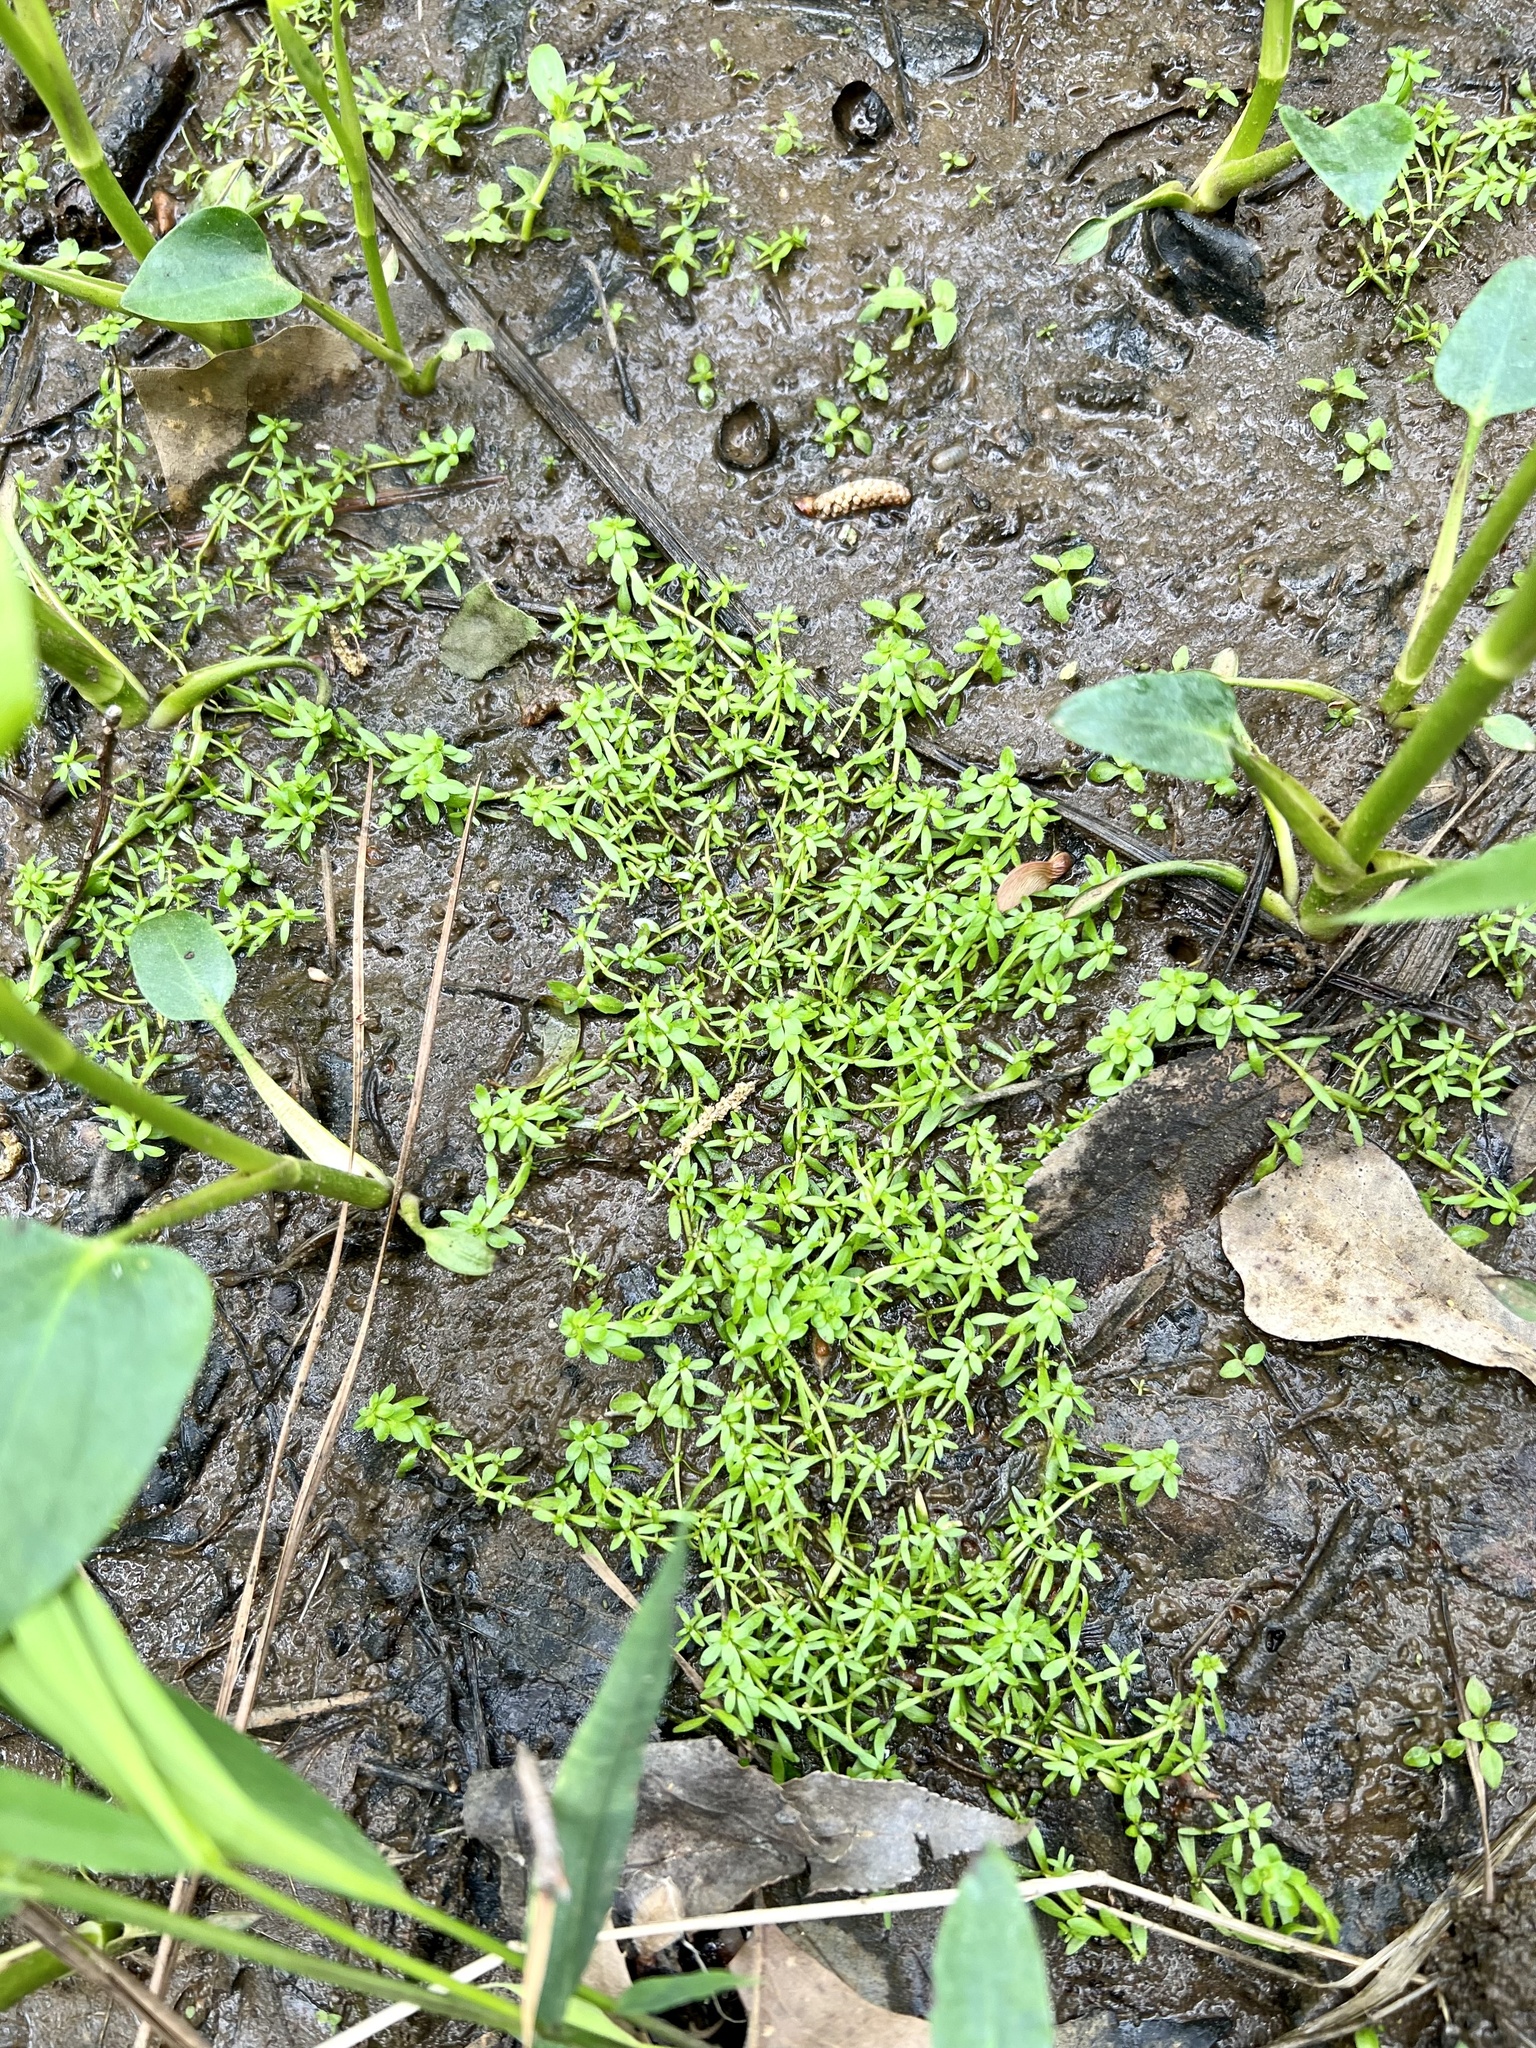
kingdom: Plantae
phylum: Tracheophyta
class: Magnoliopsida
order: Lamiales
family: Plantaginaceae
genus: Callitriche
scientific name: Callitriche heterophylla
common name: Two-headed water-starwort
